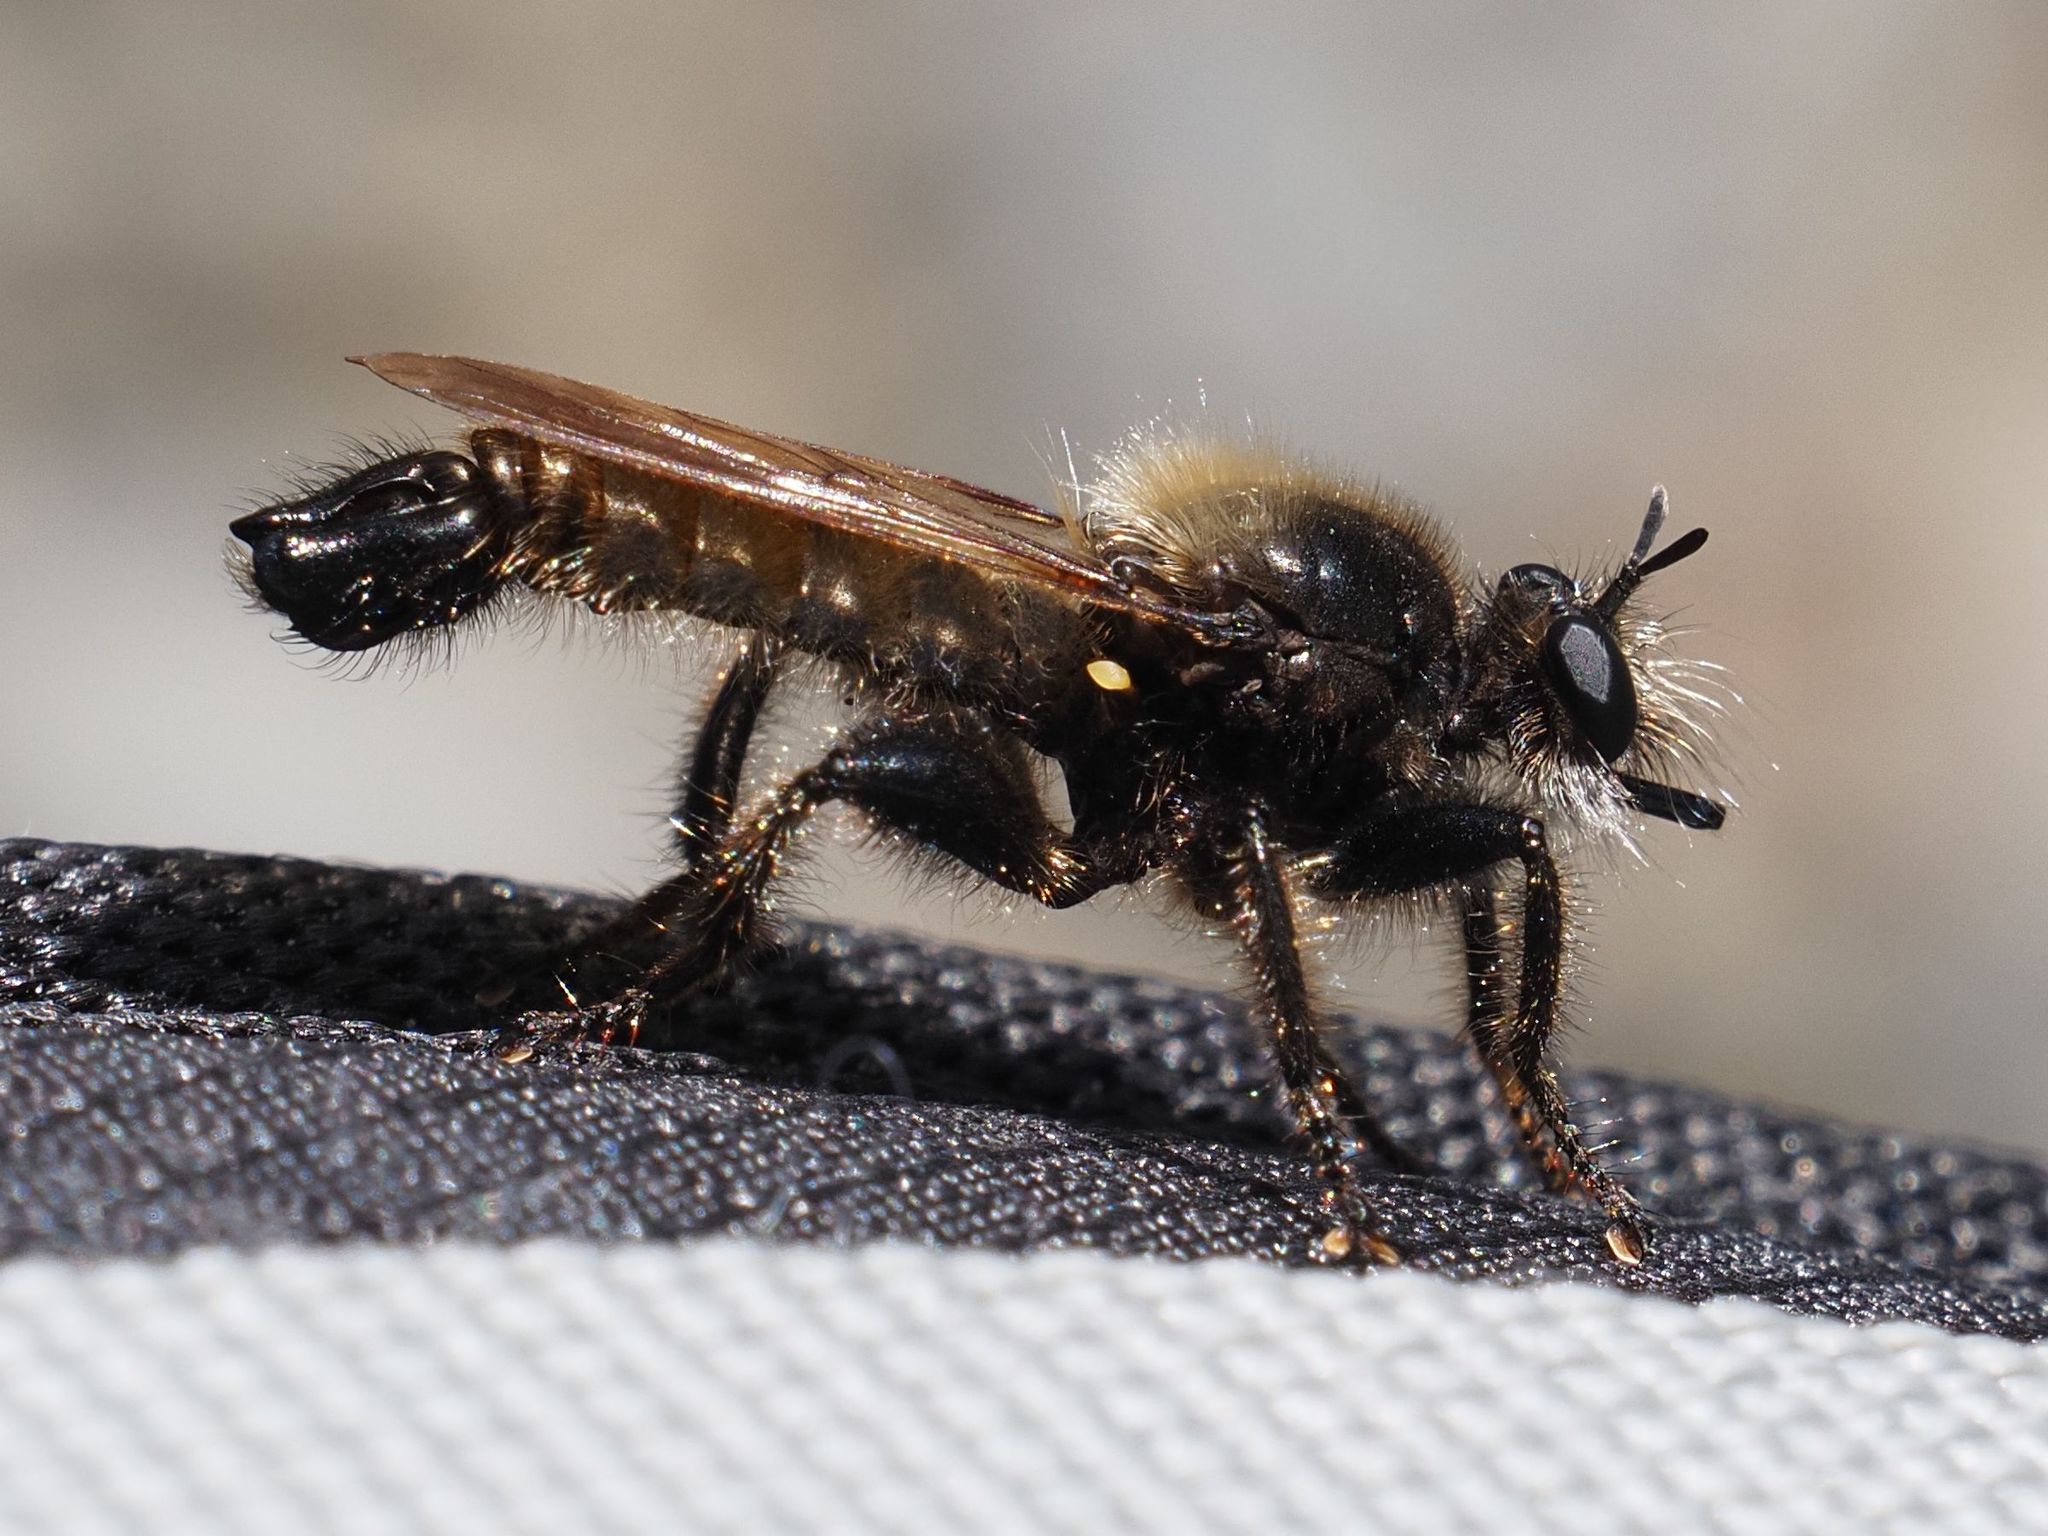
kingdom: Animalia
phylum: Arthropoda
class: Insecta
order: Diptera
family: Asilidae
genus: Laphria
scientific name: Laphria flava
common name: Bumblebee robberfly
